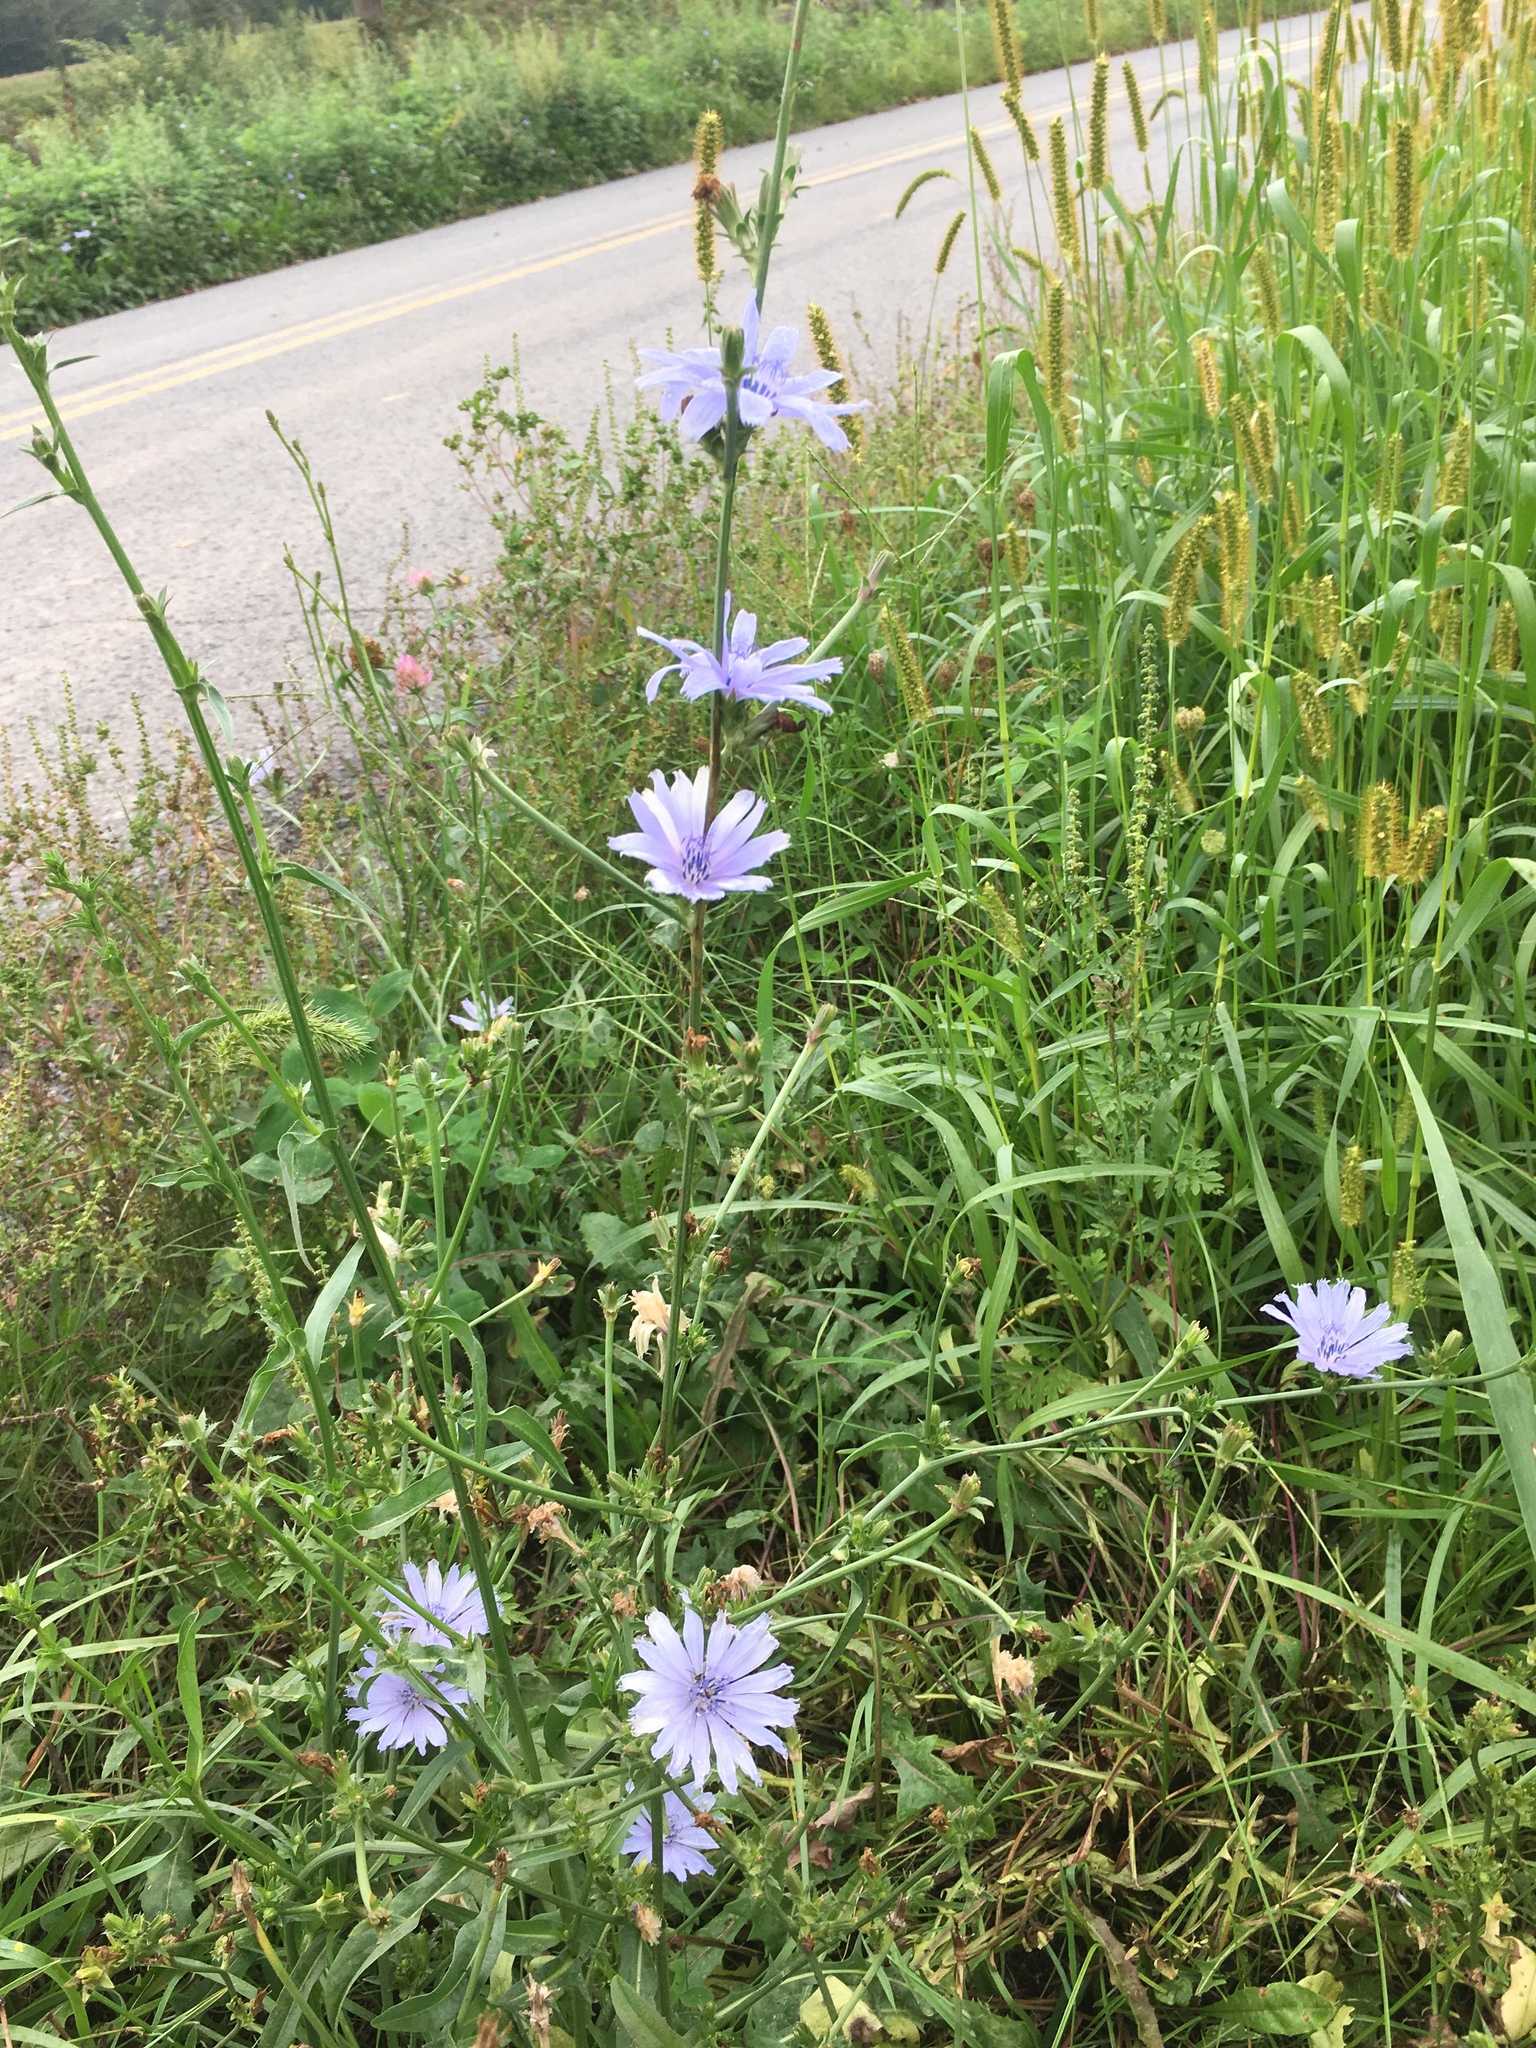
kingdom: Plantae
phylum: Tracheophyta
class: Magnoliopsida
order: Asterales
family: Asteraceae
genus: Cichorium
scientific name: Cichorium intybus
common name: Chicory
